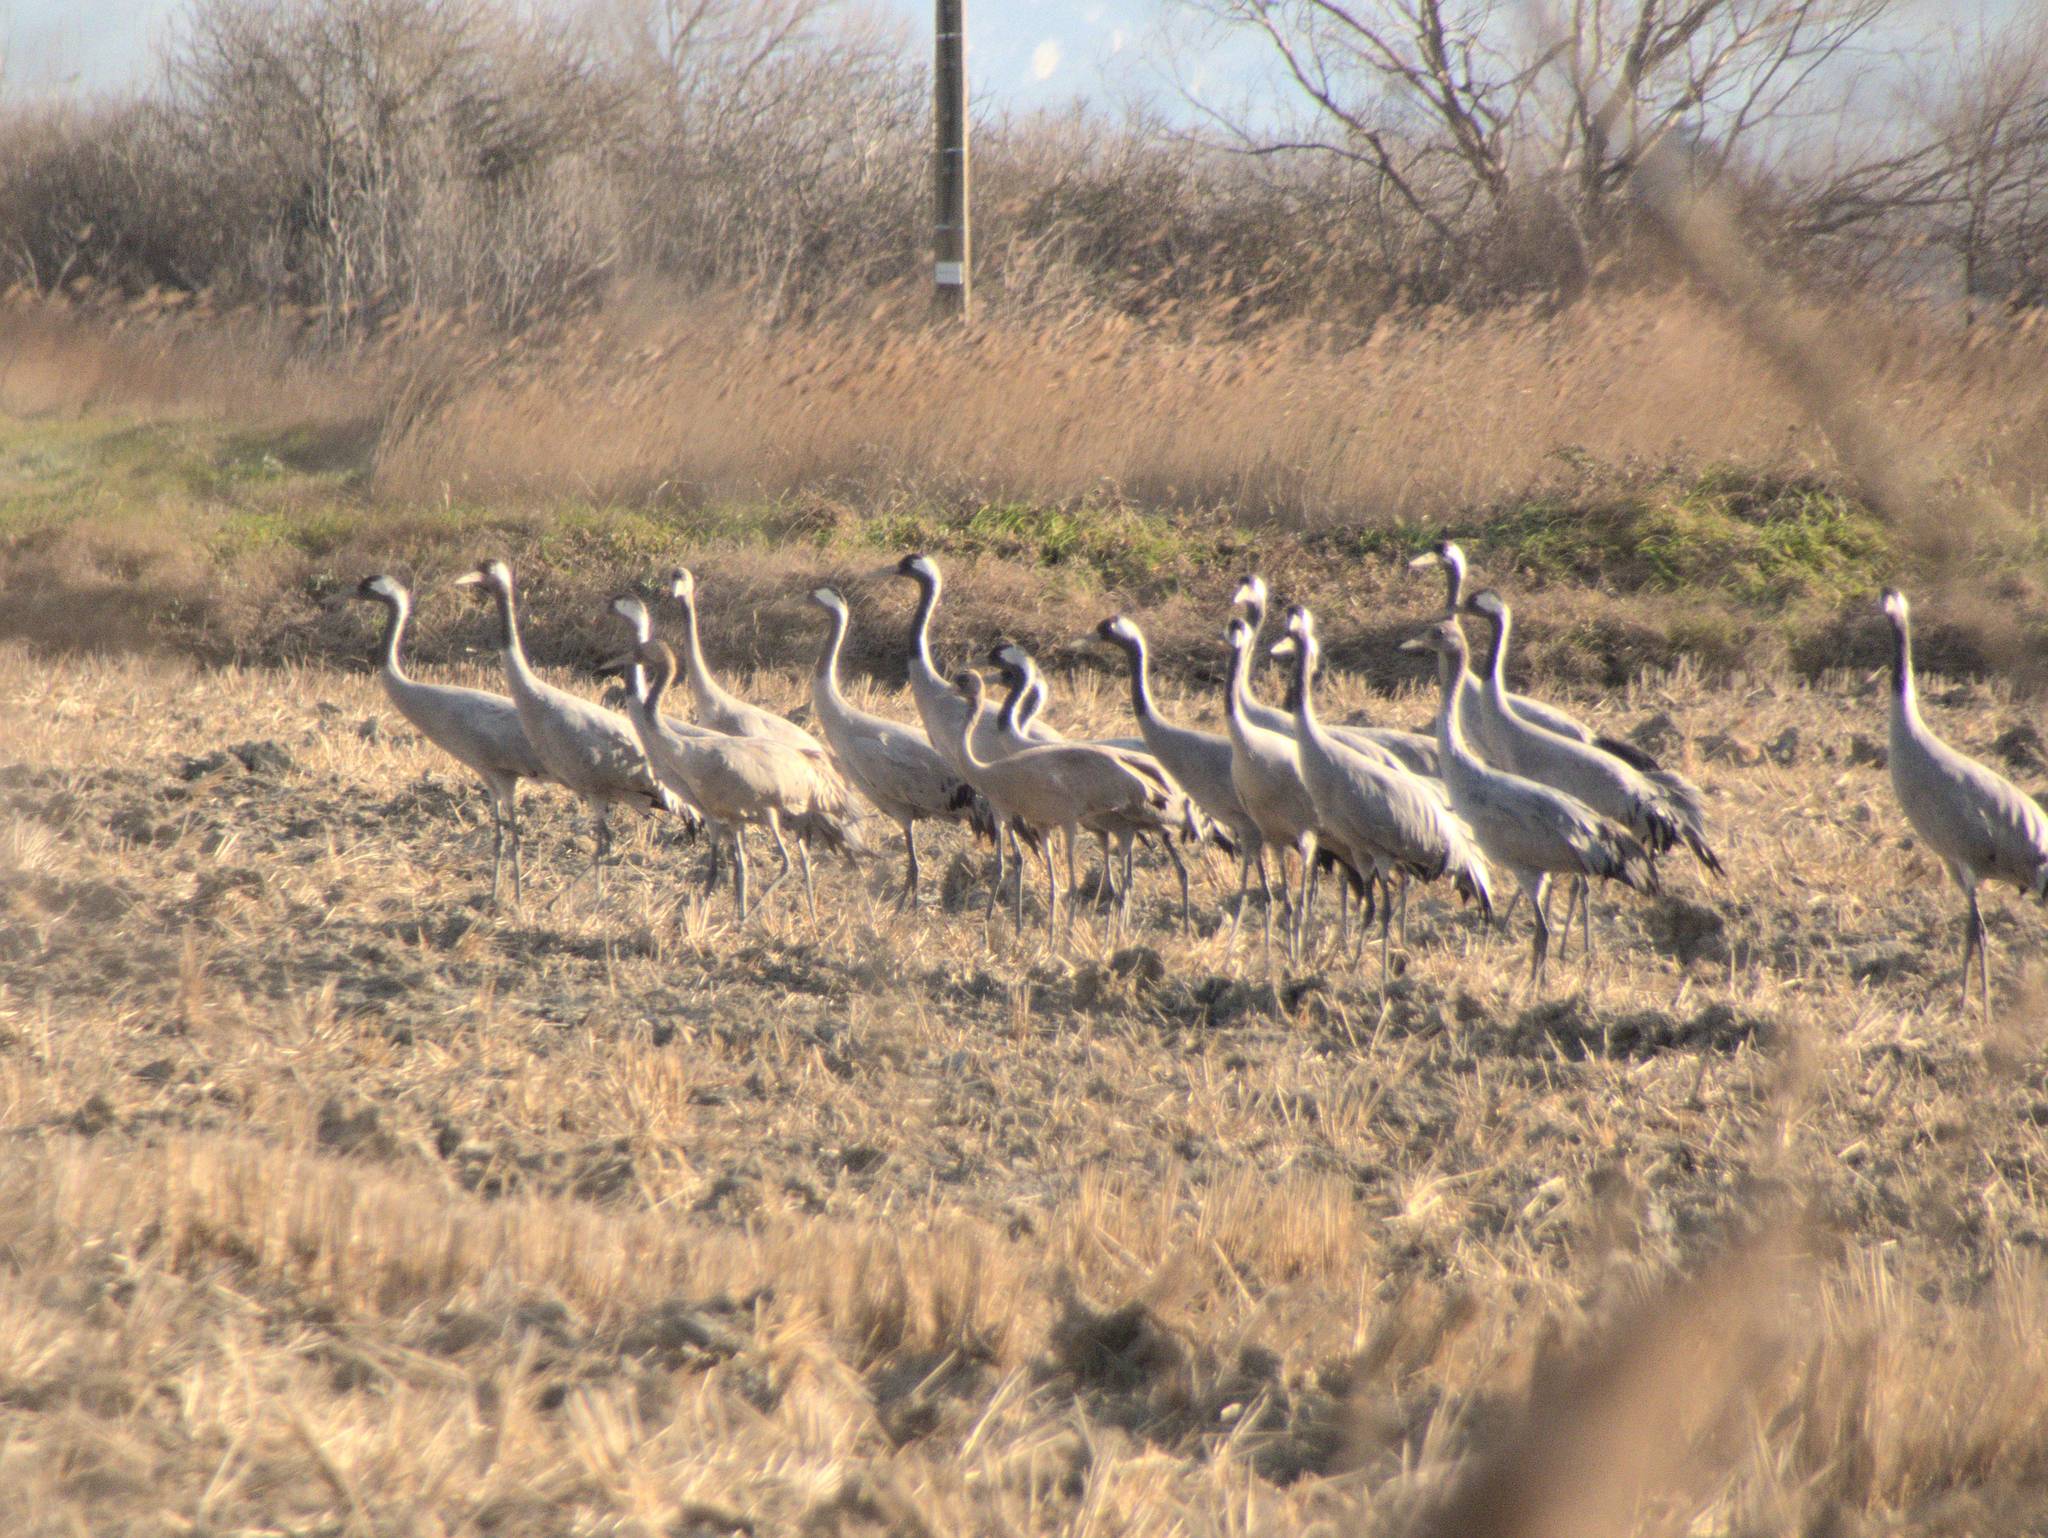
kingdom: Animalia
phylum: Chordata
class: Aves
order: Gruiformes
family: Gruidae
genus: Grus
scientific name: Grus grus
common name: Common crane
